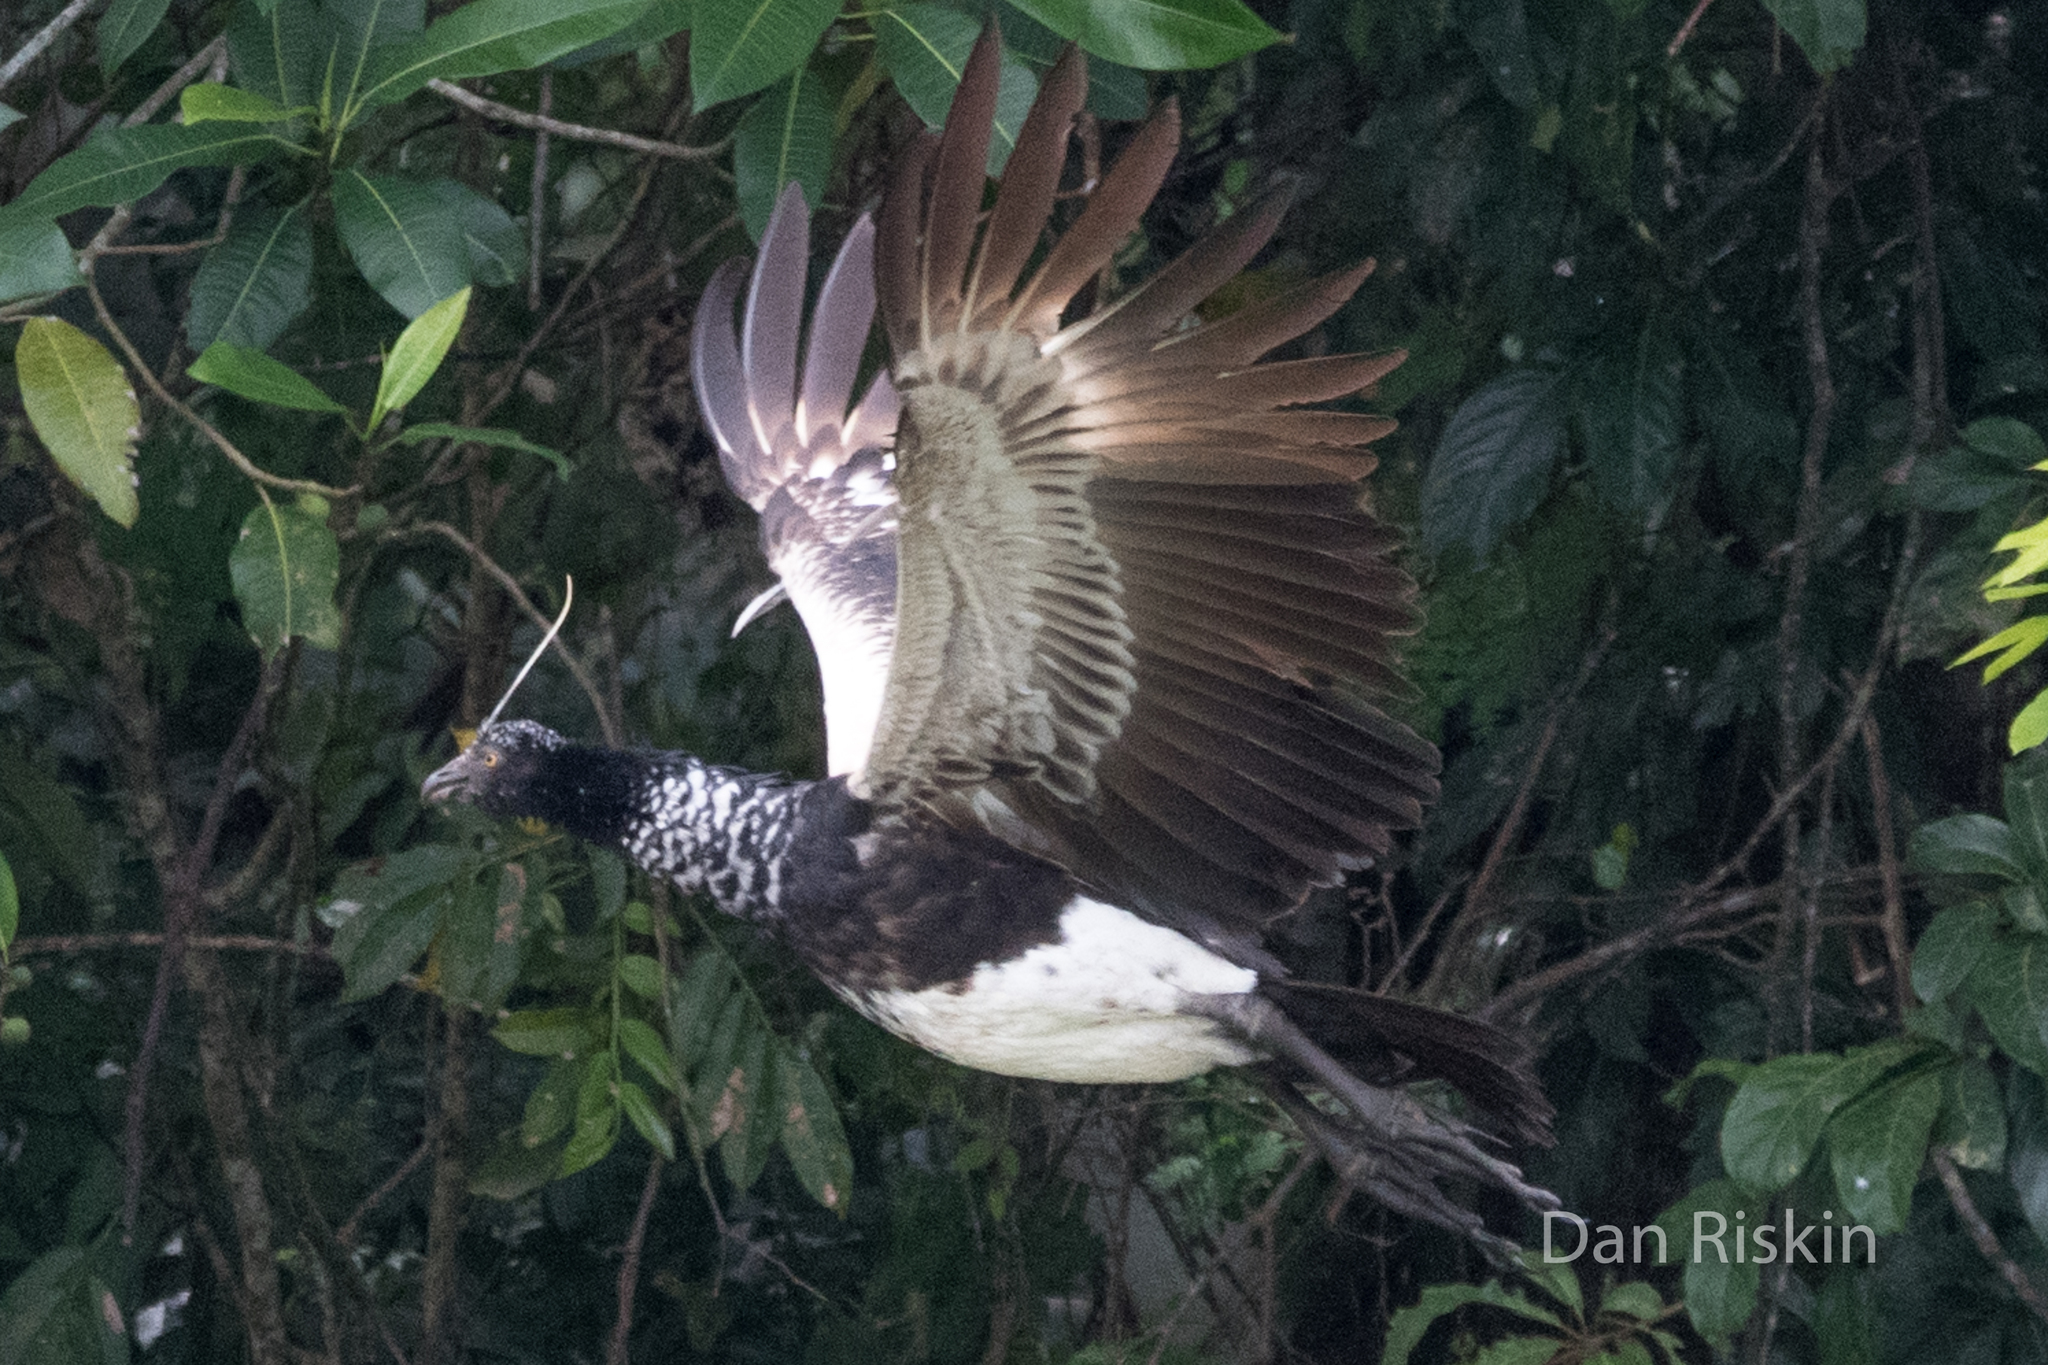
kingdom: Animalia
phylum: Chordata
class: Aves
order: Anseriformes
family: Anhimidae
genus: Anhima
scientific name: Anhima cornuta
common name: Horned screamer
